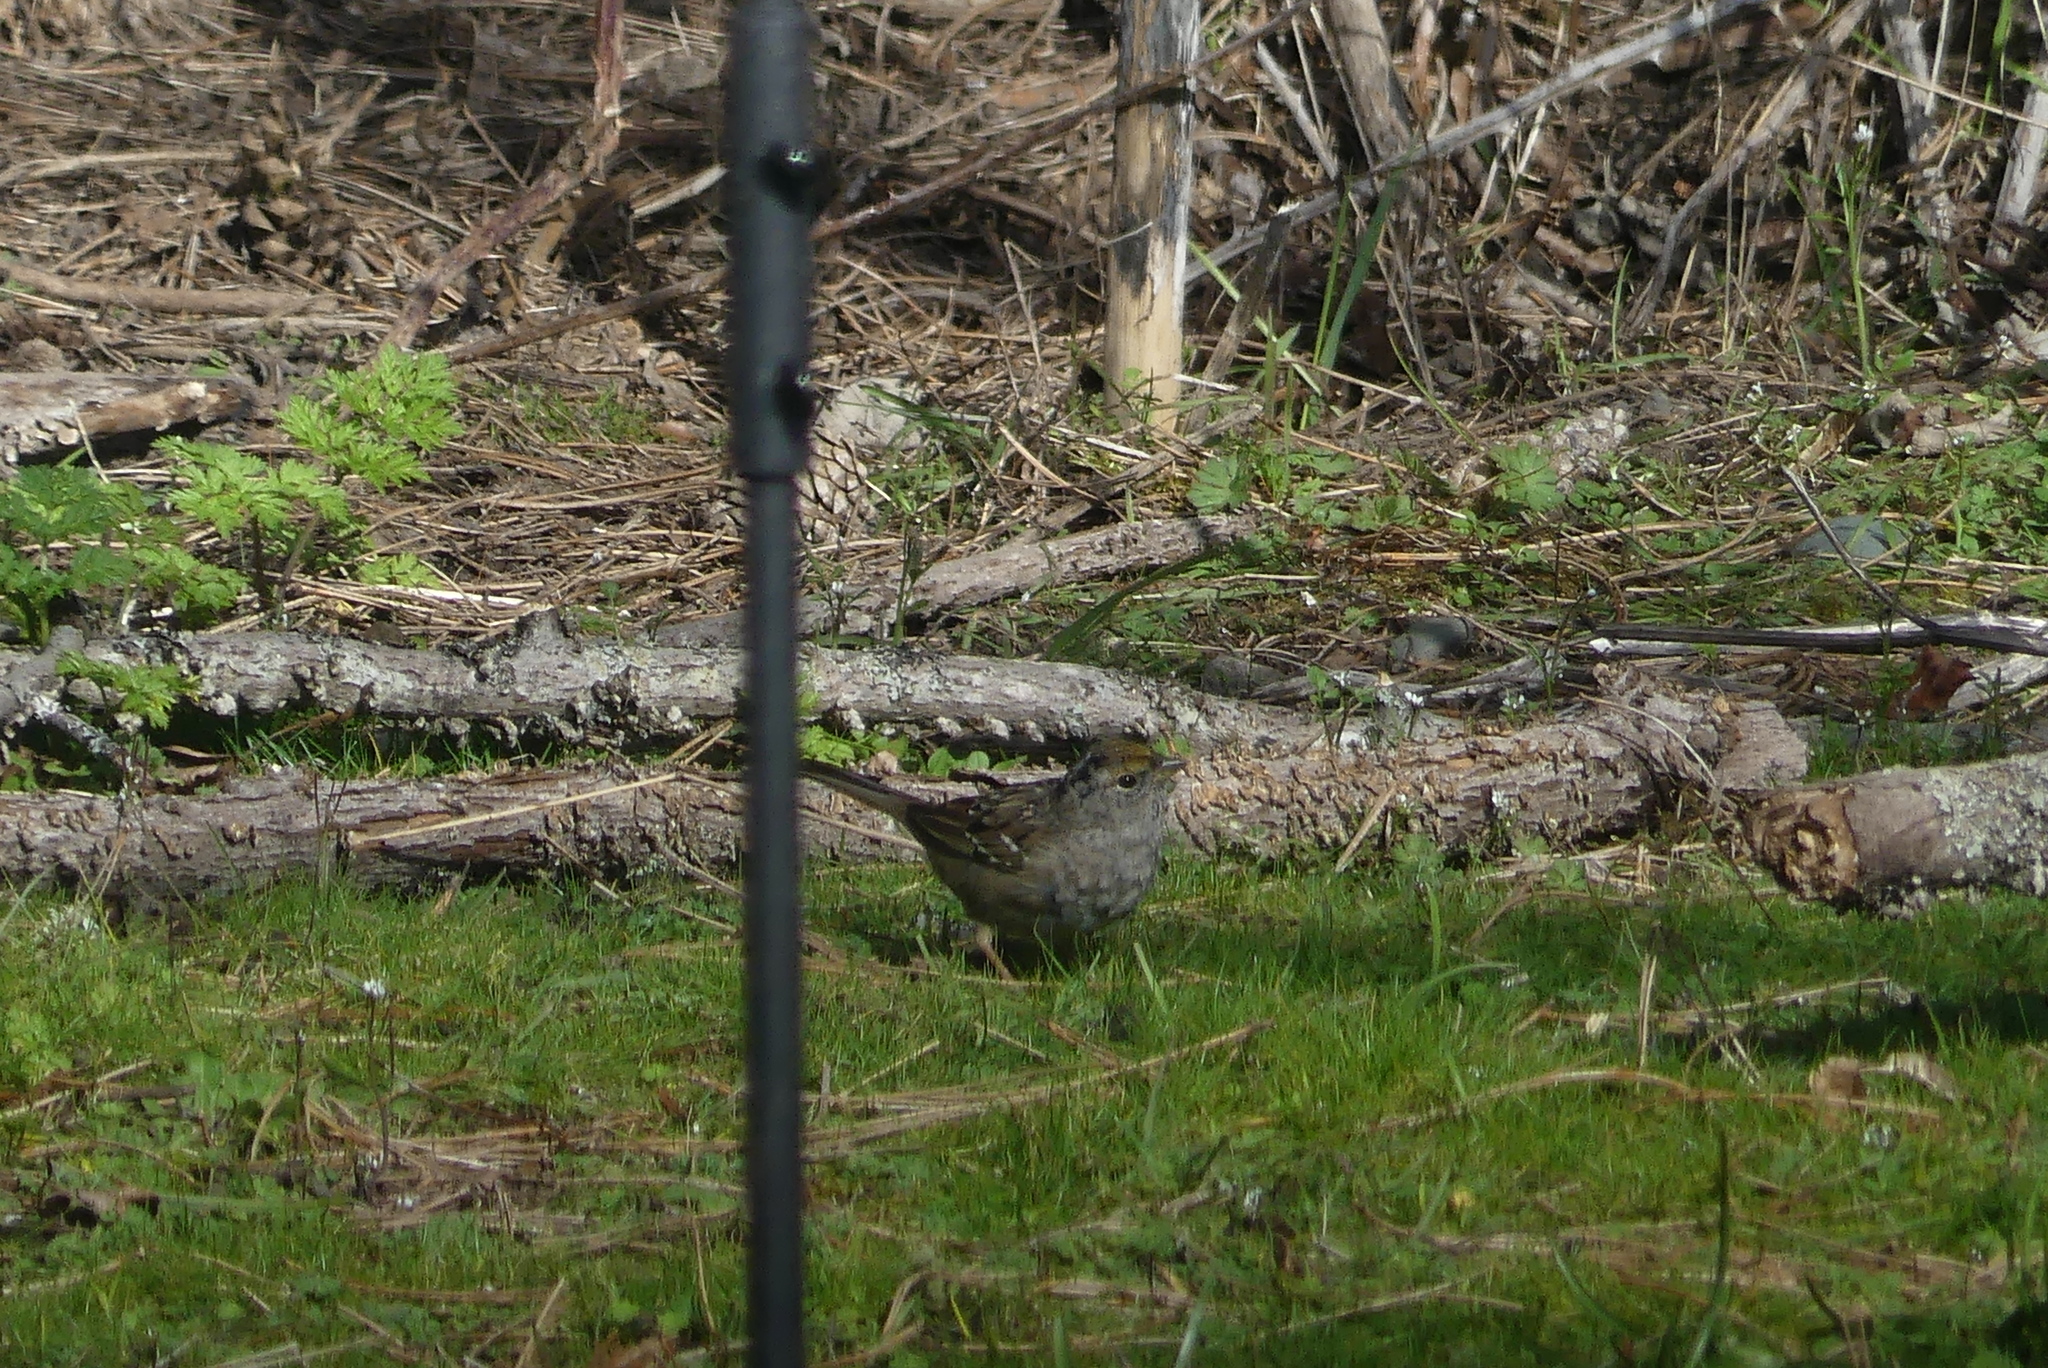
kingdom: Animalia
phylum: Chordata
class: Aves
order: Passeriformes
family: Passerellidae
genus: Zonotrichia
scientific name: Zonotrichia atricapilla
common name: Golden-crowned sparrow
